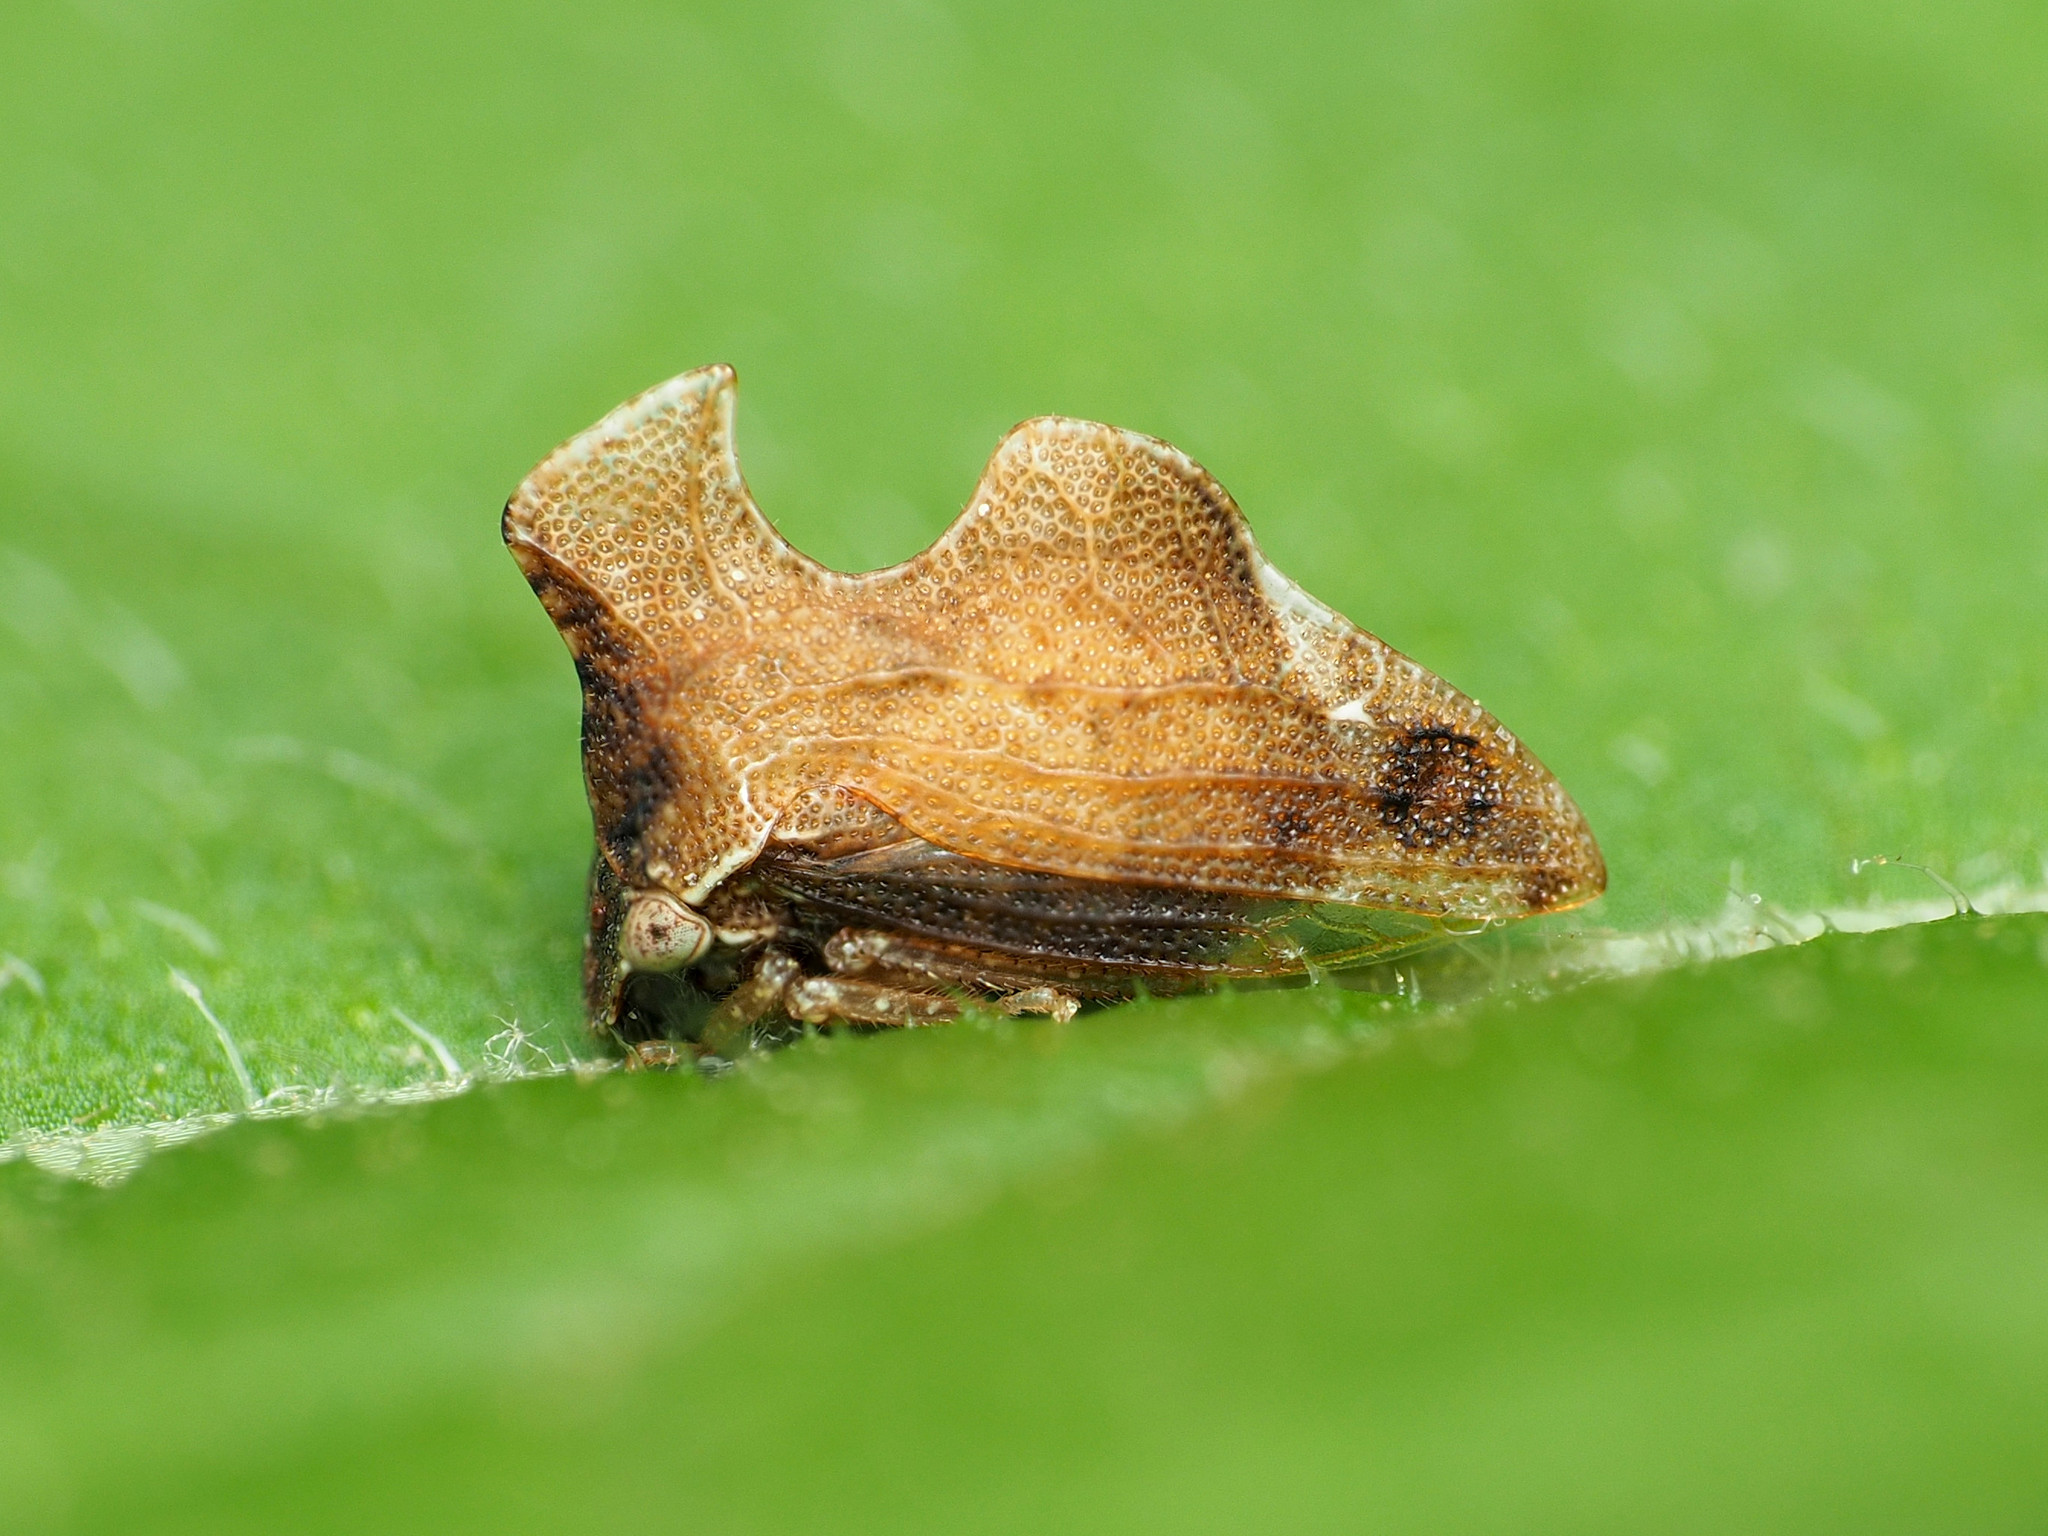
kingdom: Animalia
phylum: Arthropoda
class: Insecta
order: Hemiptera
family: Membracidae
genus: Entylia
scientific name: Entylia carinata
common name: Keeled treehopper
